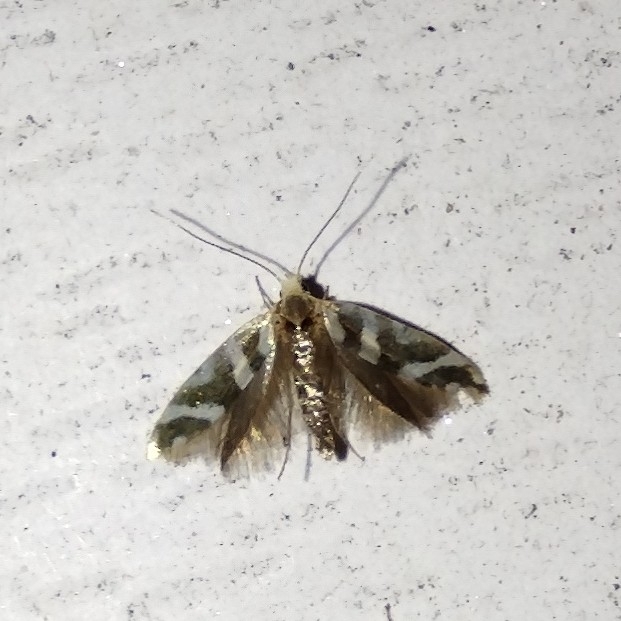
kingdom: Animalia
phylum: Arthropoda
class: Insecta
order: Lepidoptera
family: Argyresthiidae
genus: Argyresthia
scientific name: Argyresthia goedartella
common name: Golden argent
